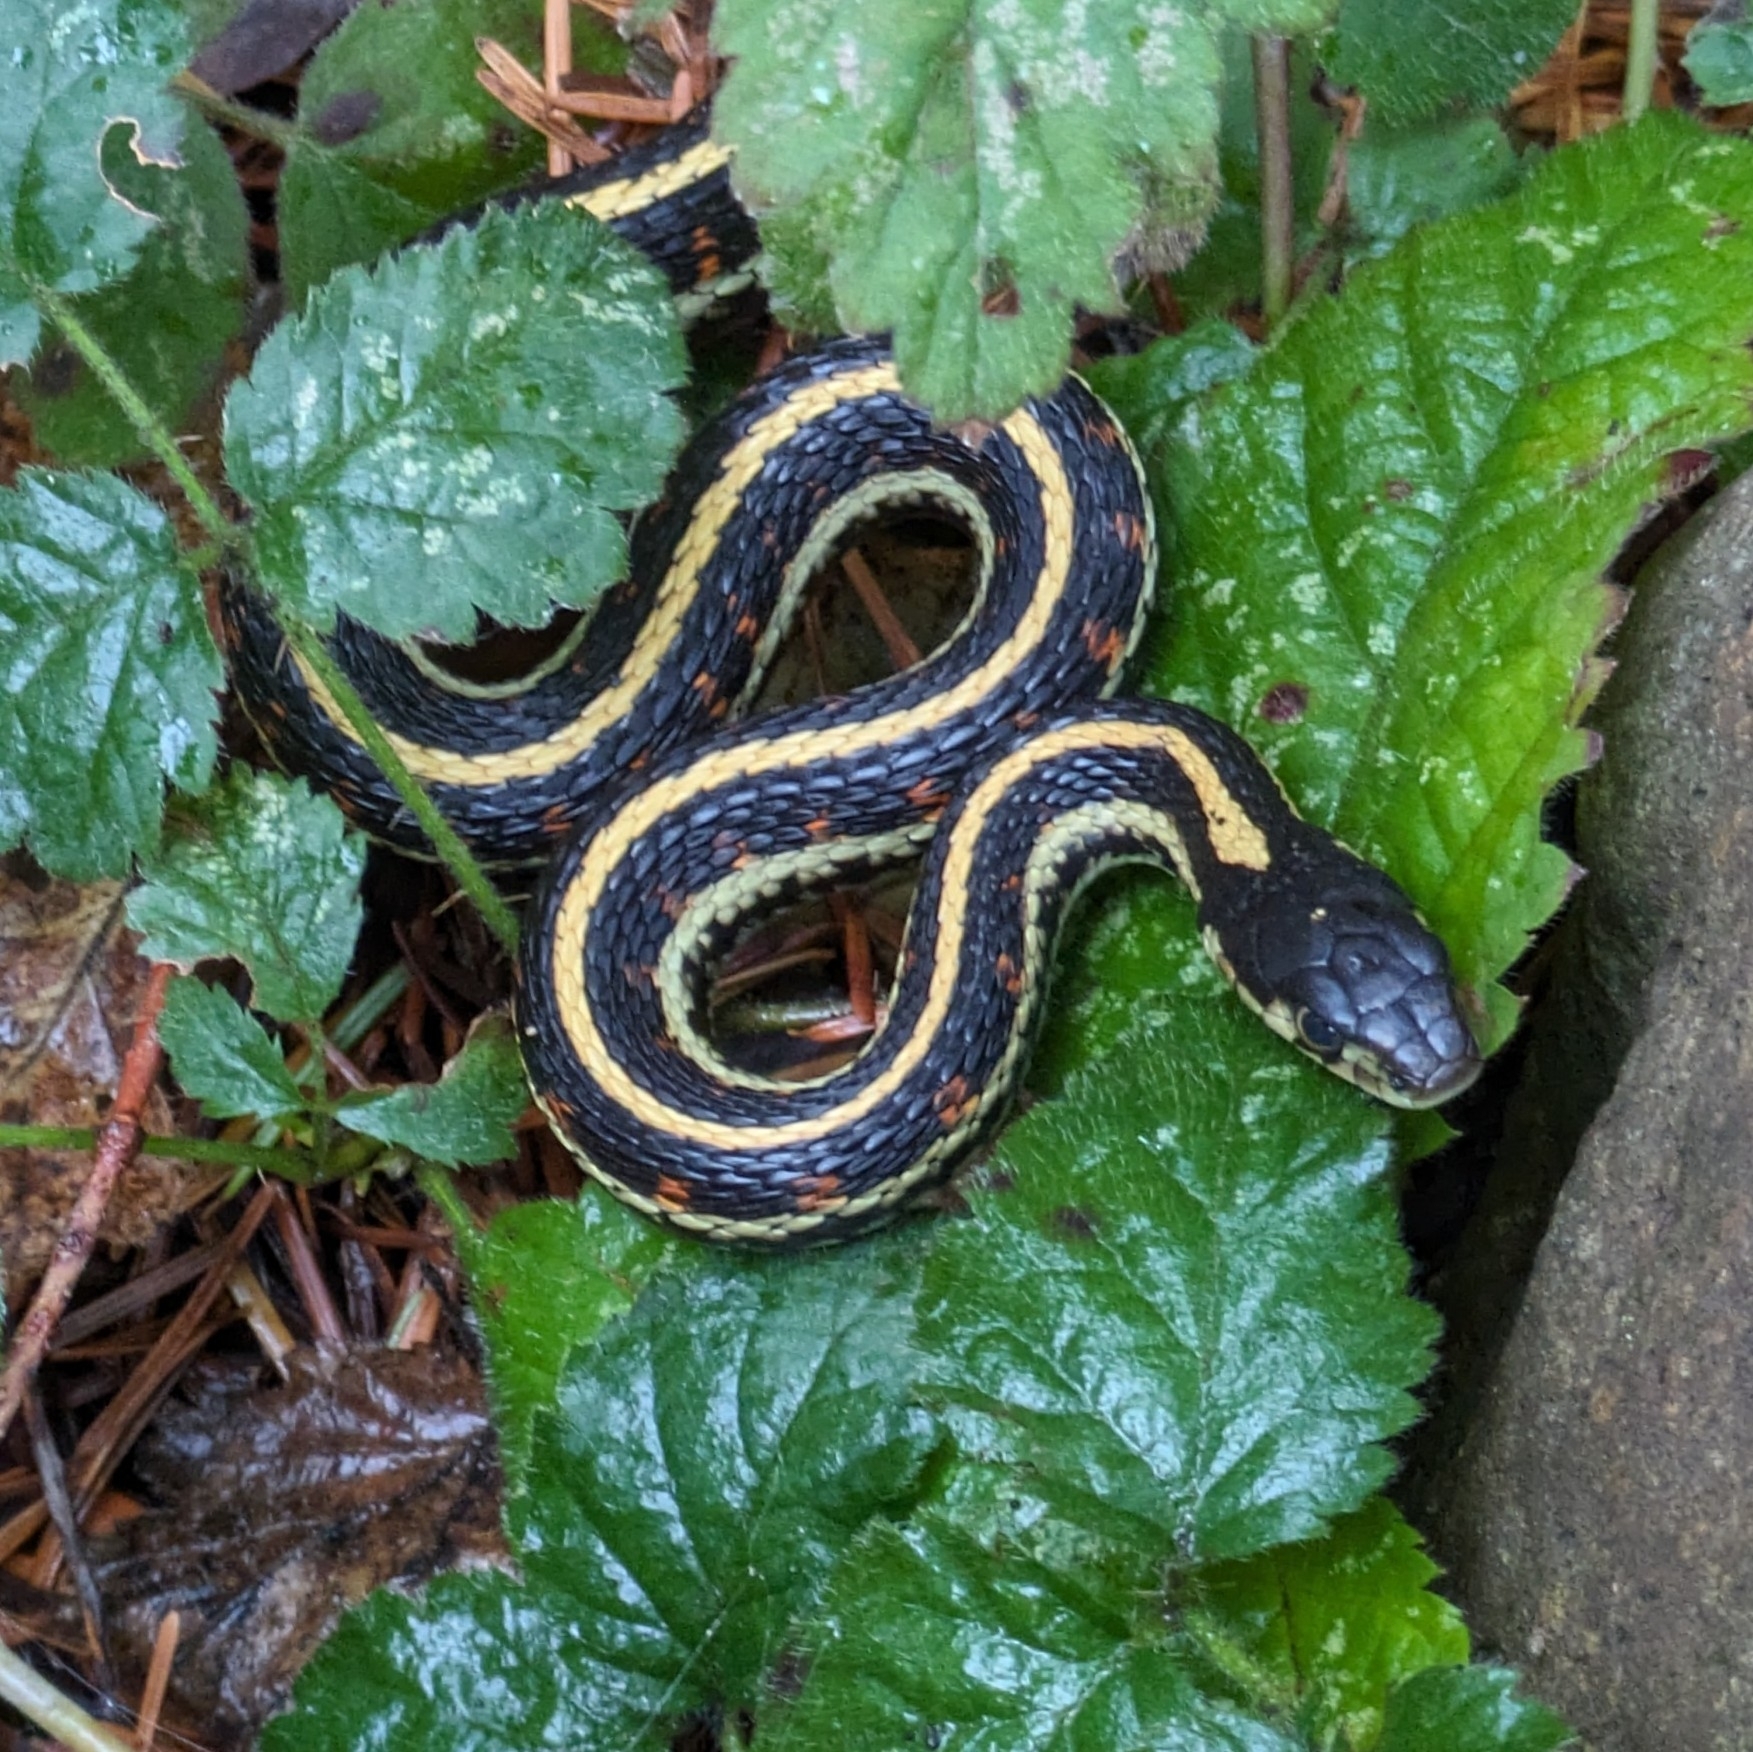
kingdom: Animalia
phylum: Chordata
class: Squamata
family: Colubridae
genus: Thamnophis
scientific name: Thamnophis sirtalis
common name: Common garter snake
